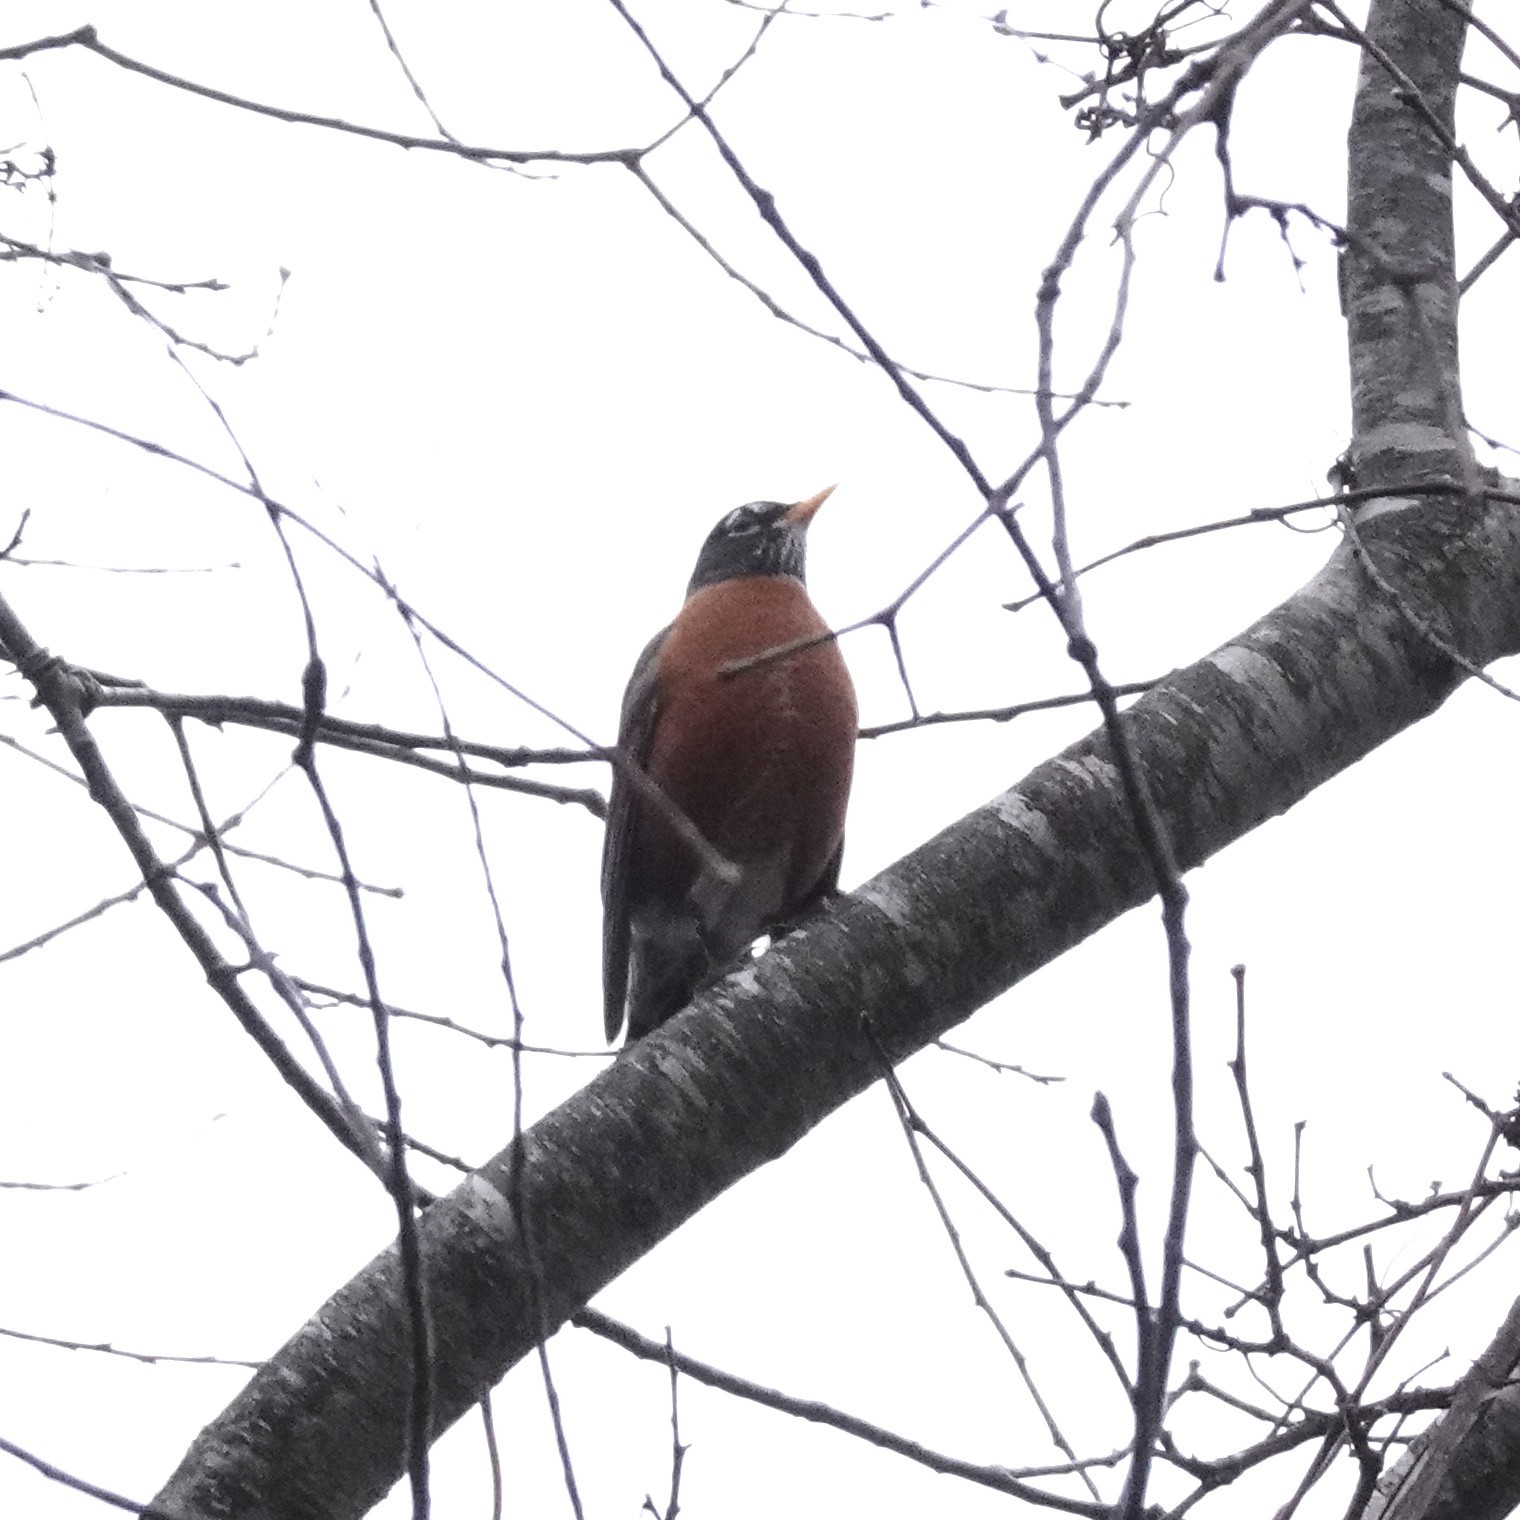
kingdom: Animalia
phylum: Chordata
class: Aves
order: Passeriformes
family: Turdidae
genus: Turdus
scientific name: Turdus migratorius
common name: American robin
